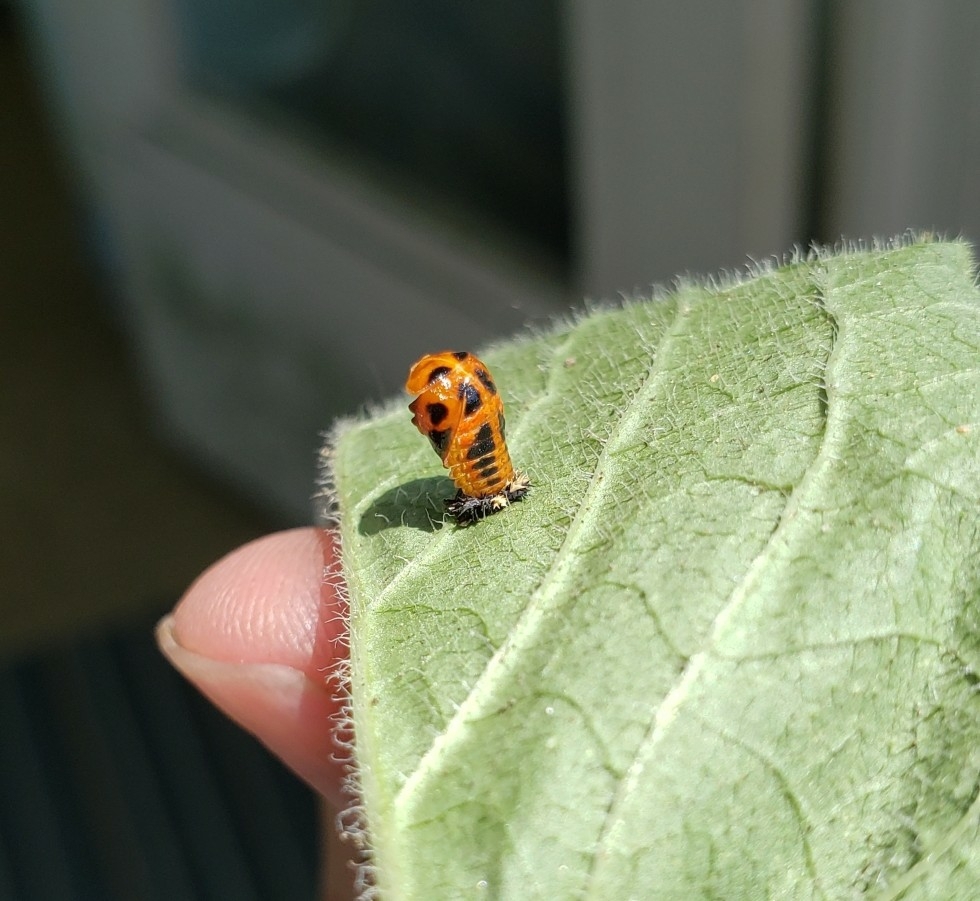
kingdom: Animalia
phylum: Arthropoda
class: Insecta
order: Coleoptera
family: Coccinellidae
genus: Harmonia
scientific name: Harmonia axyridis
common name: Harlequin ladybird
